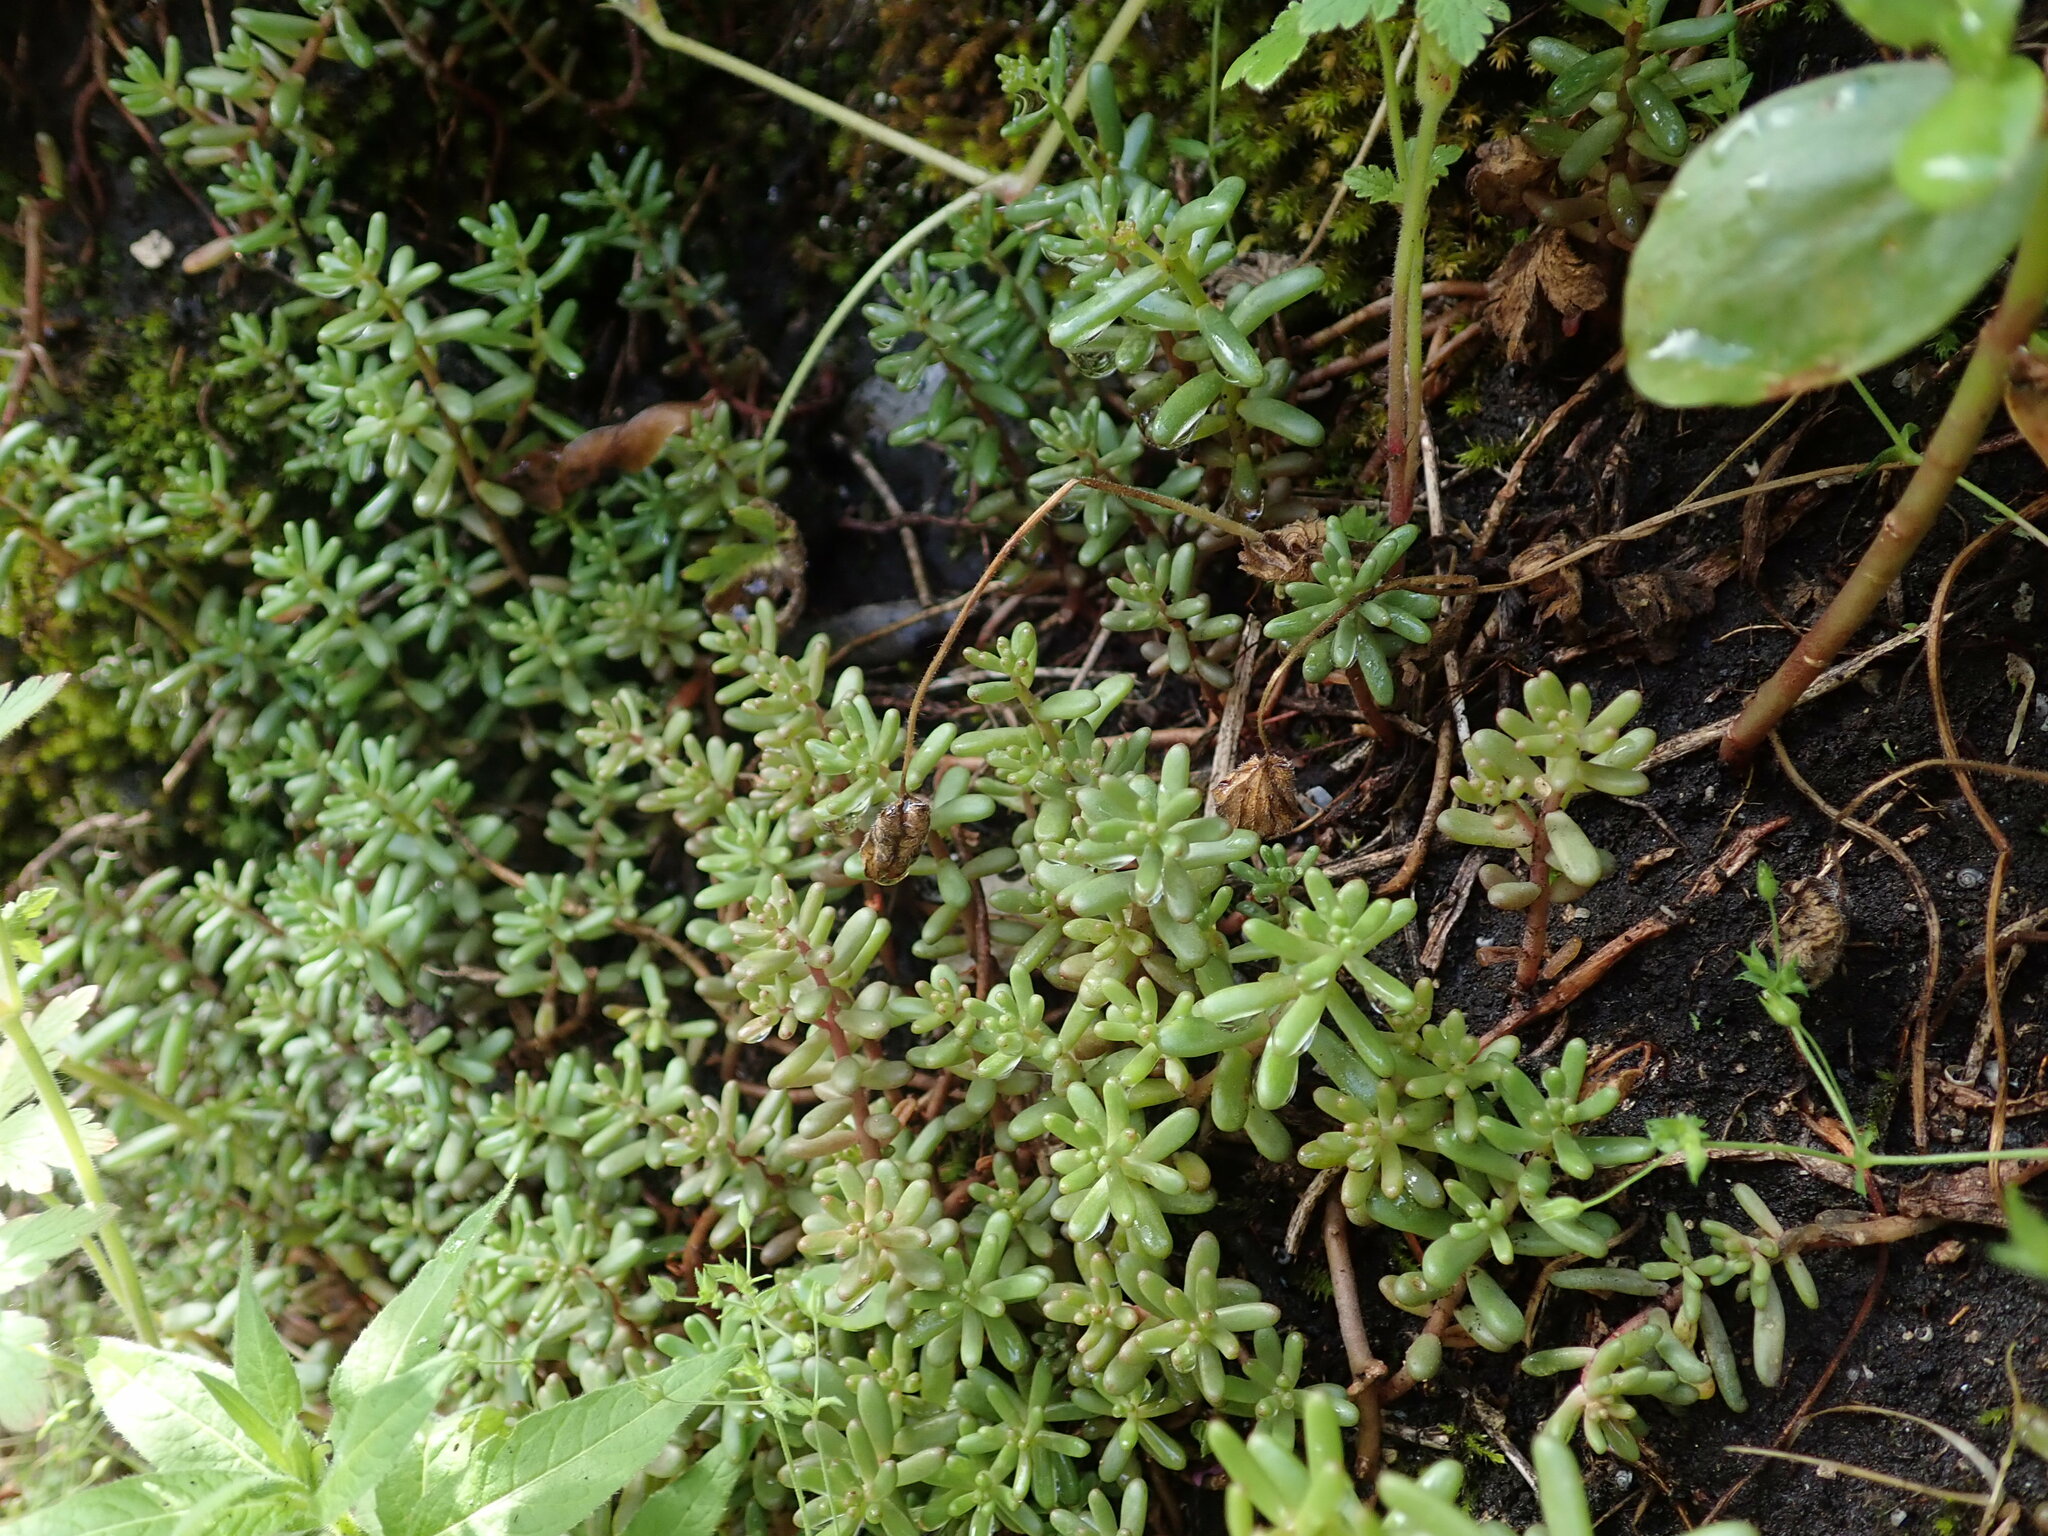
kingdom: Plantae
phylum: Tracheophyta
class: Magnoliopsida
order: Saxifragales
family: Crassulaceae
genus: Sedum
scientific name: Sedum album
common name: White stonecrop
